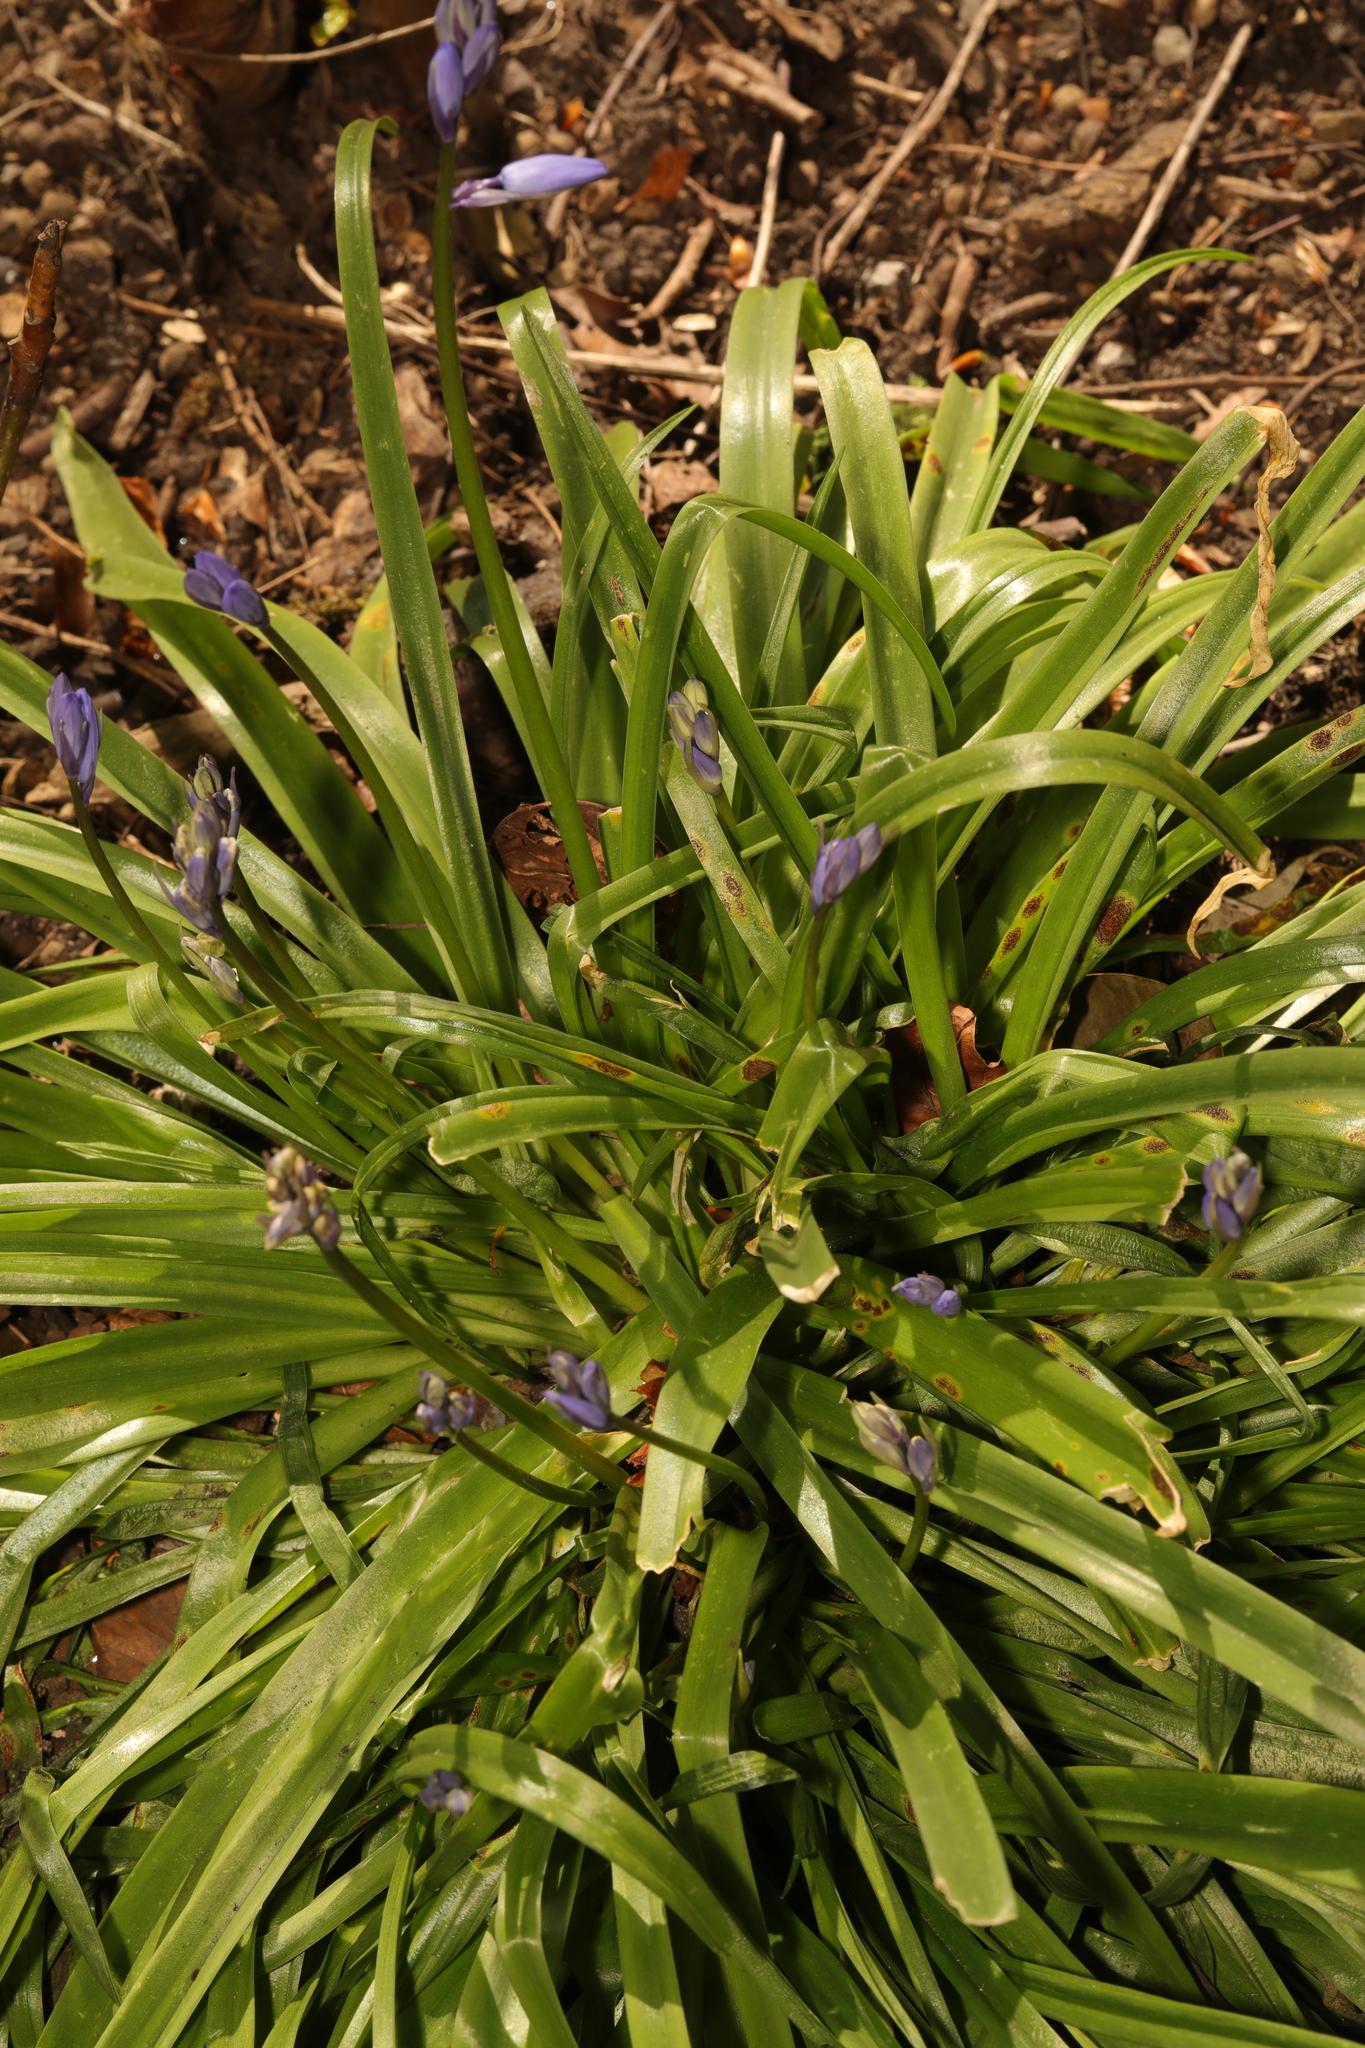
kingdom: Plantae
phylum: Tracheophyta
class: Liliopsida
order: Asparagales
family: Asparagaceae
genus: Hyacinthoides
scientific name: Hyacinthoides non-scripta
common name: Bluebell
